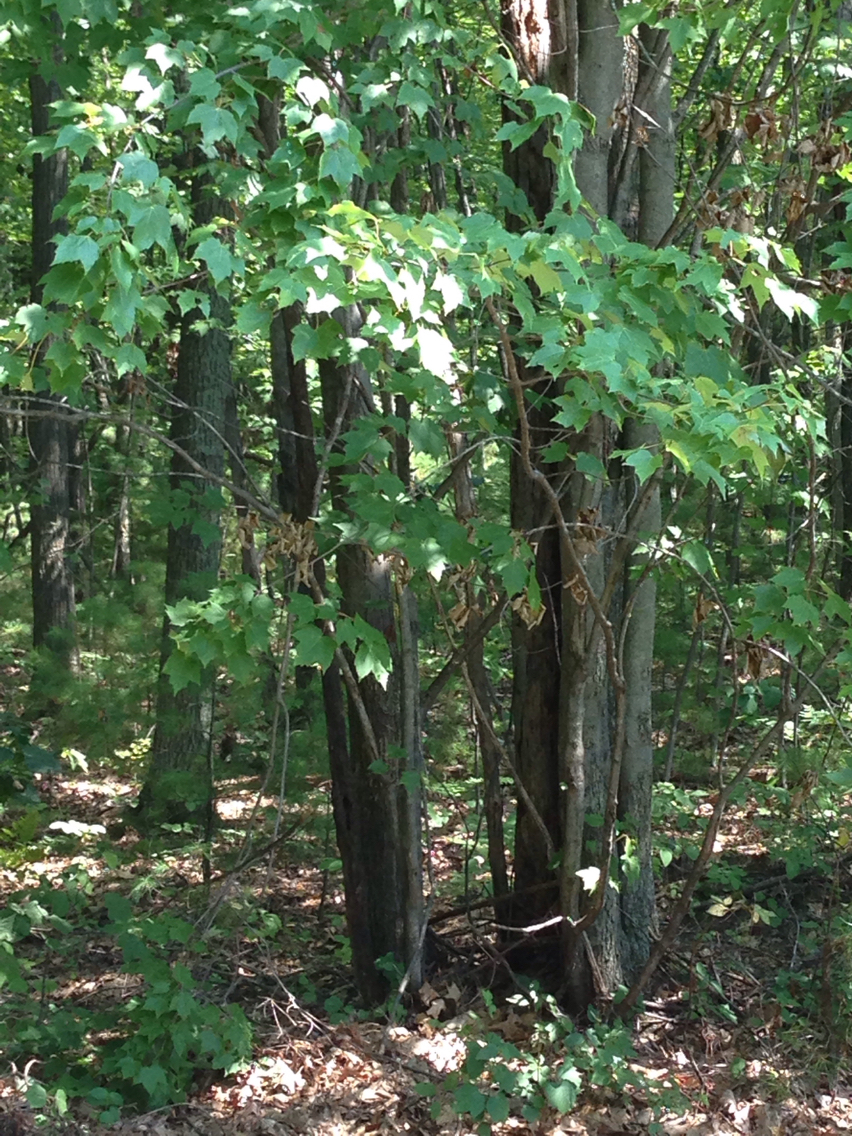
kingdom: Plantae
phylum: Tracheophyta
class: Magnoliopsida
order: Sapindales
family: Sapindaceae
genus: Acer
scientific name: Acer rubrum
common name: Red maple
